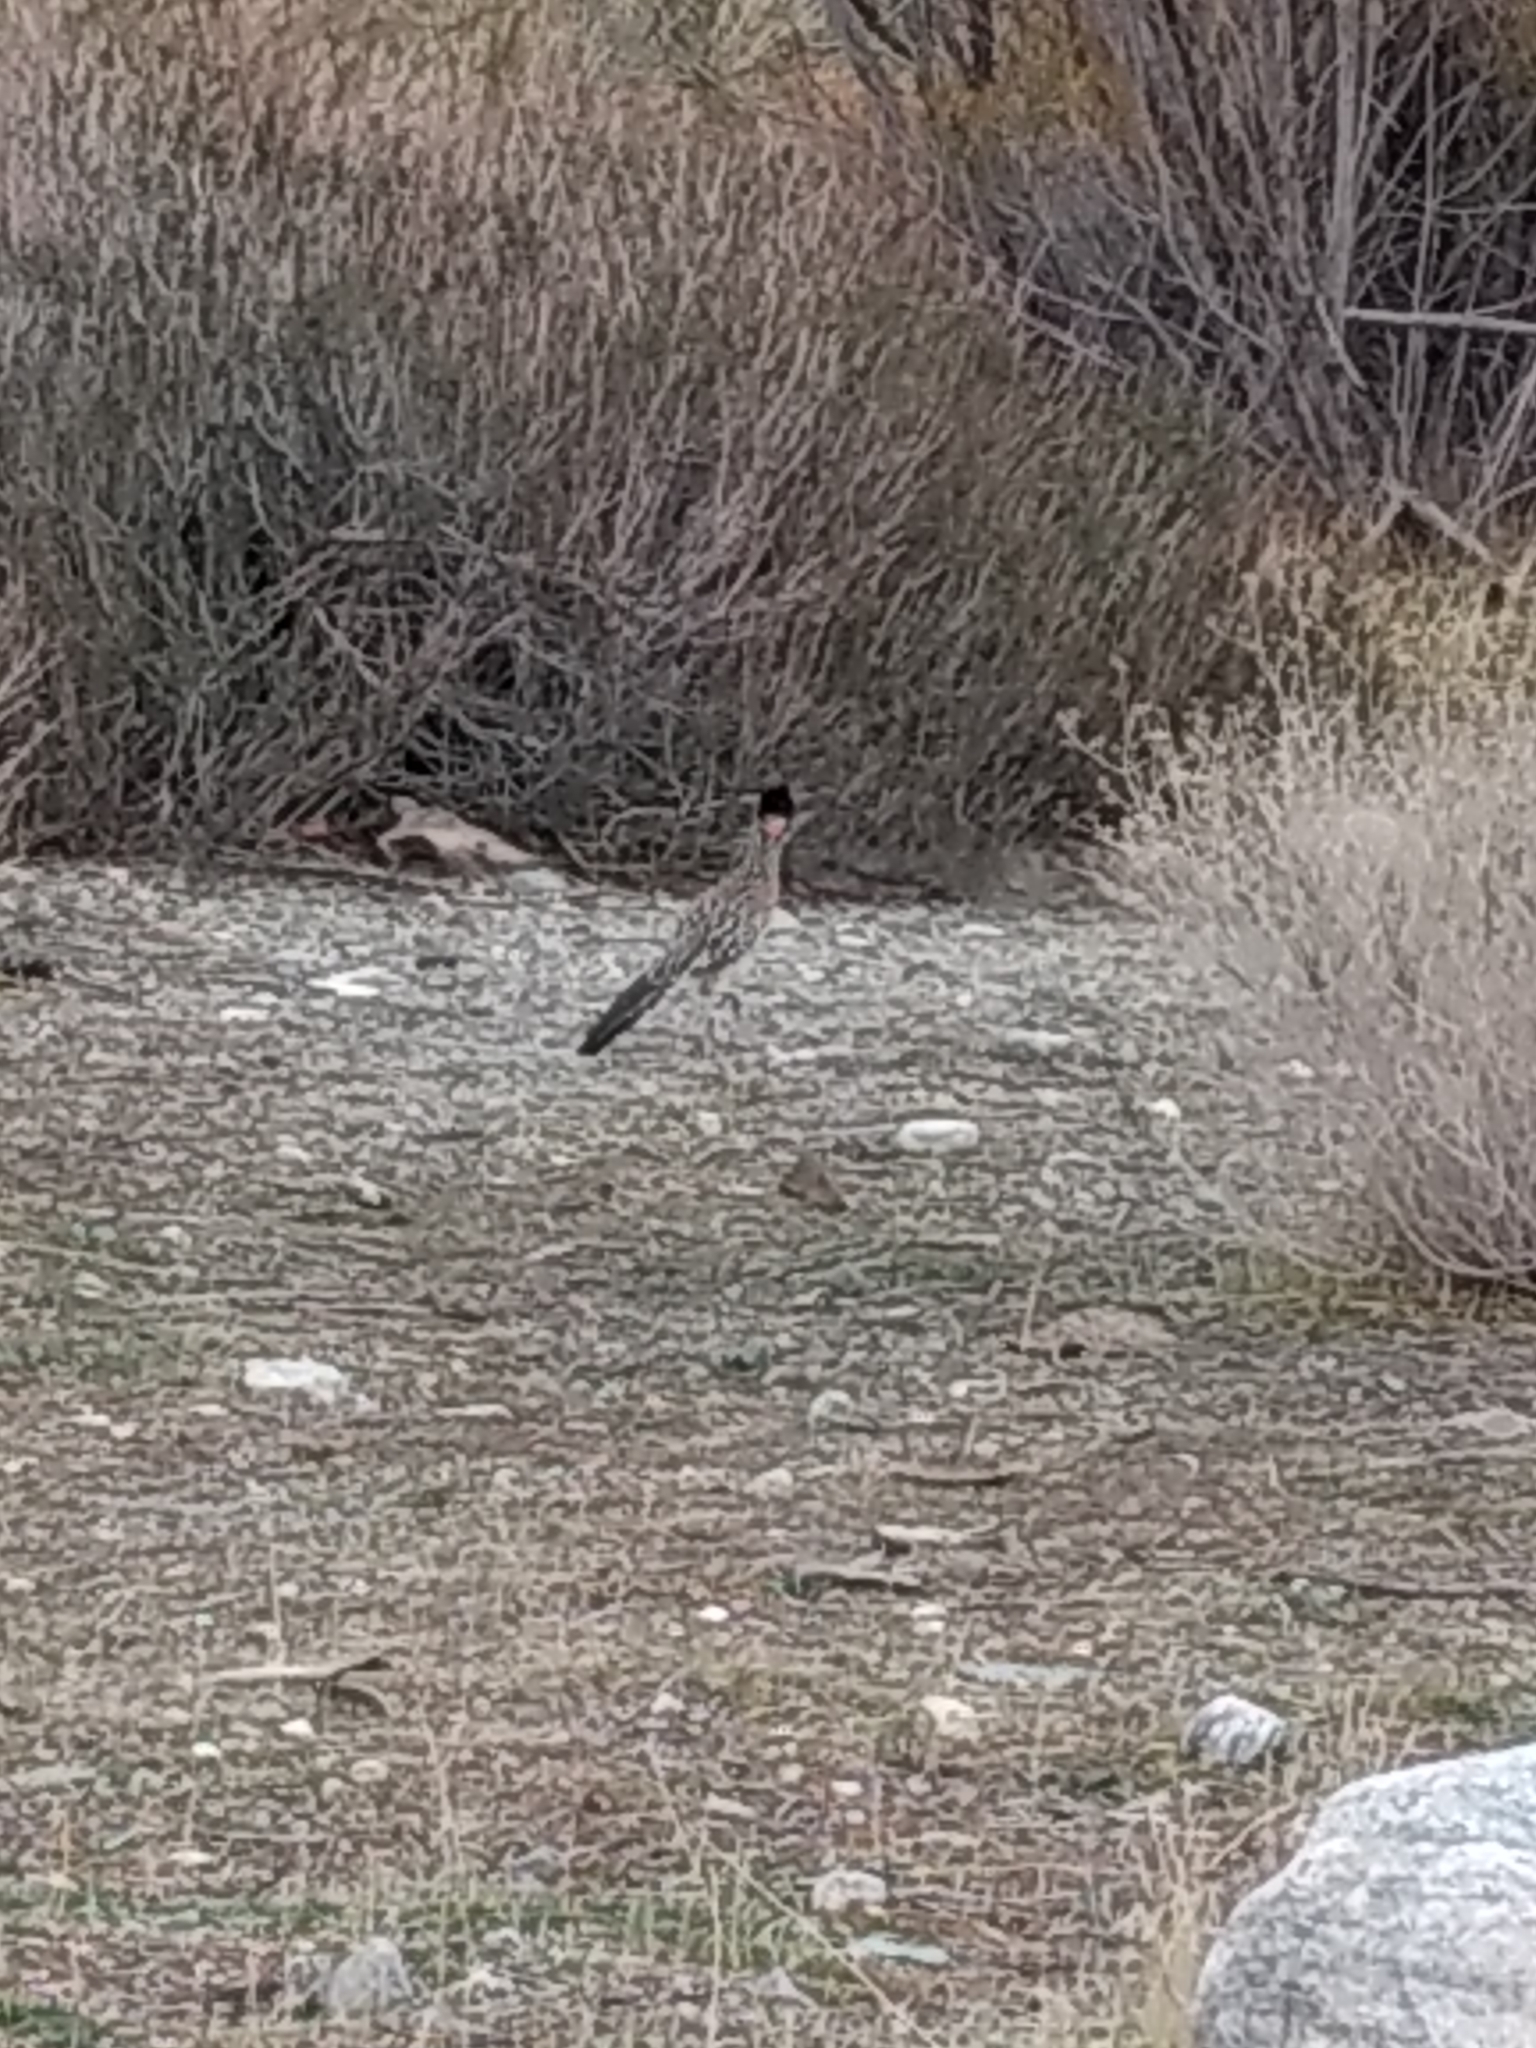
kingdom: Animalia
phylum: Chordata
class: Aves
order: Cuculiformes
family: Cuculidae
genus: Geococcyx
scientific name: Geococcyx californianus
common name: Greater roadrunner
